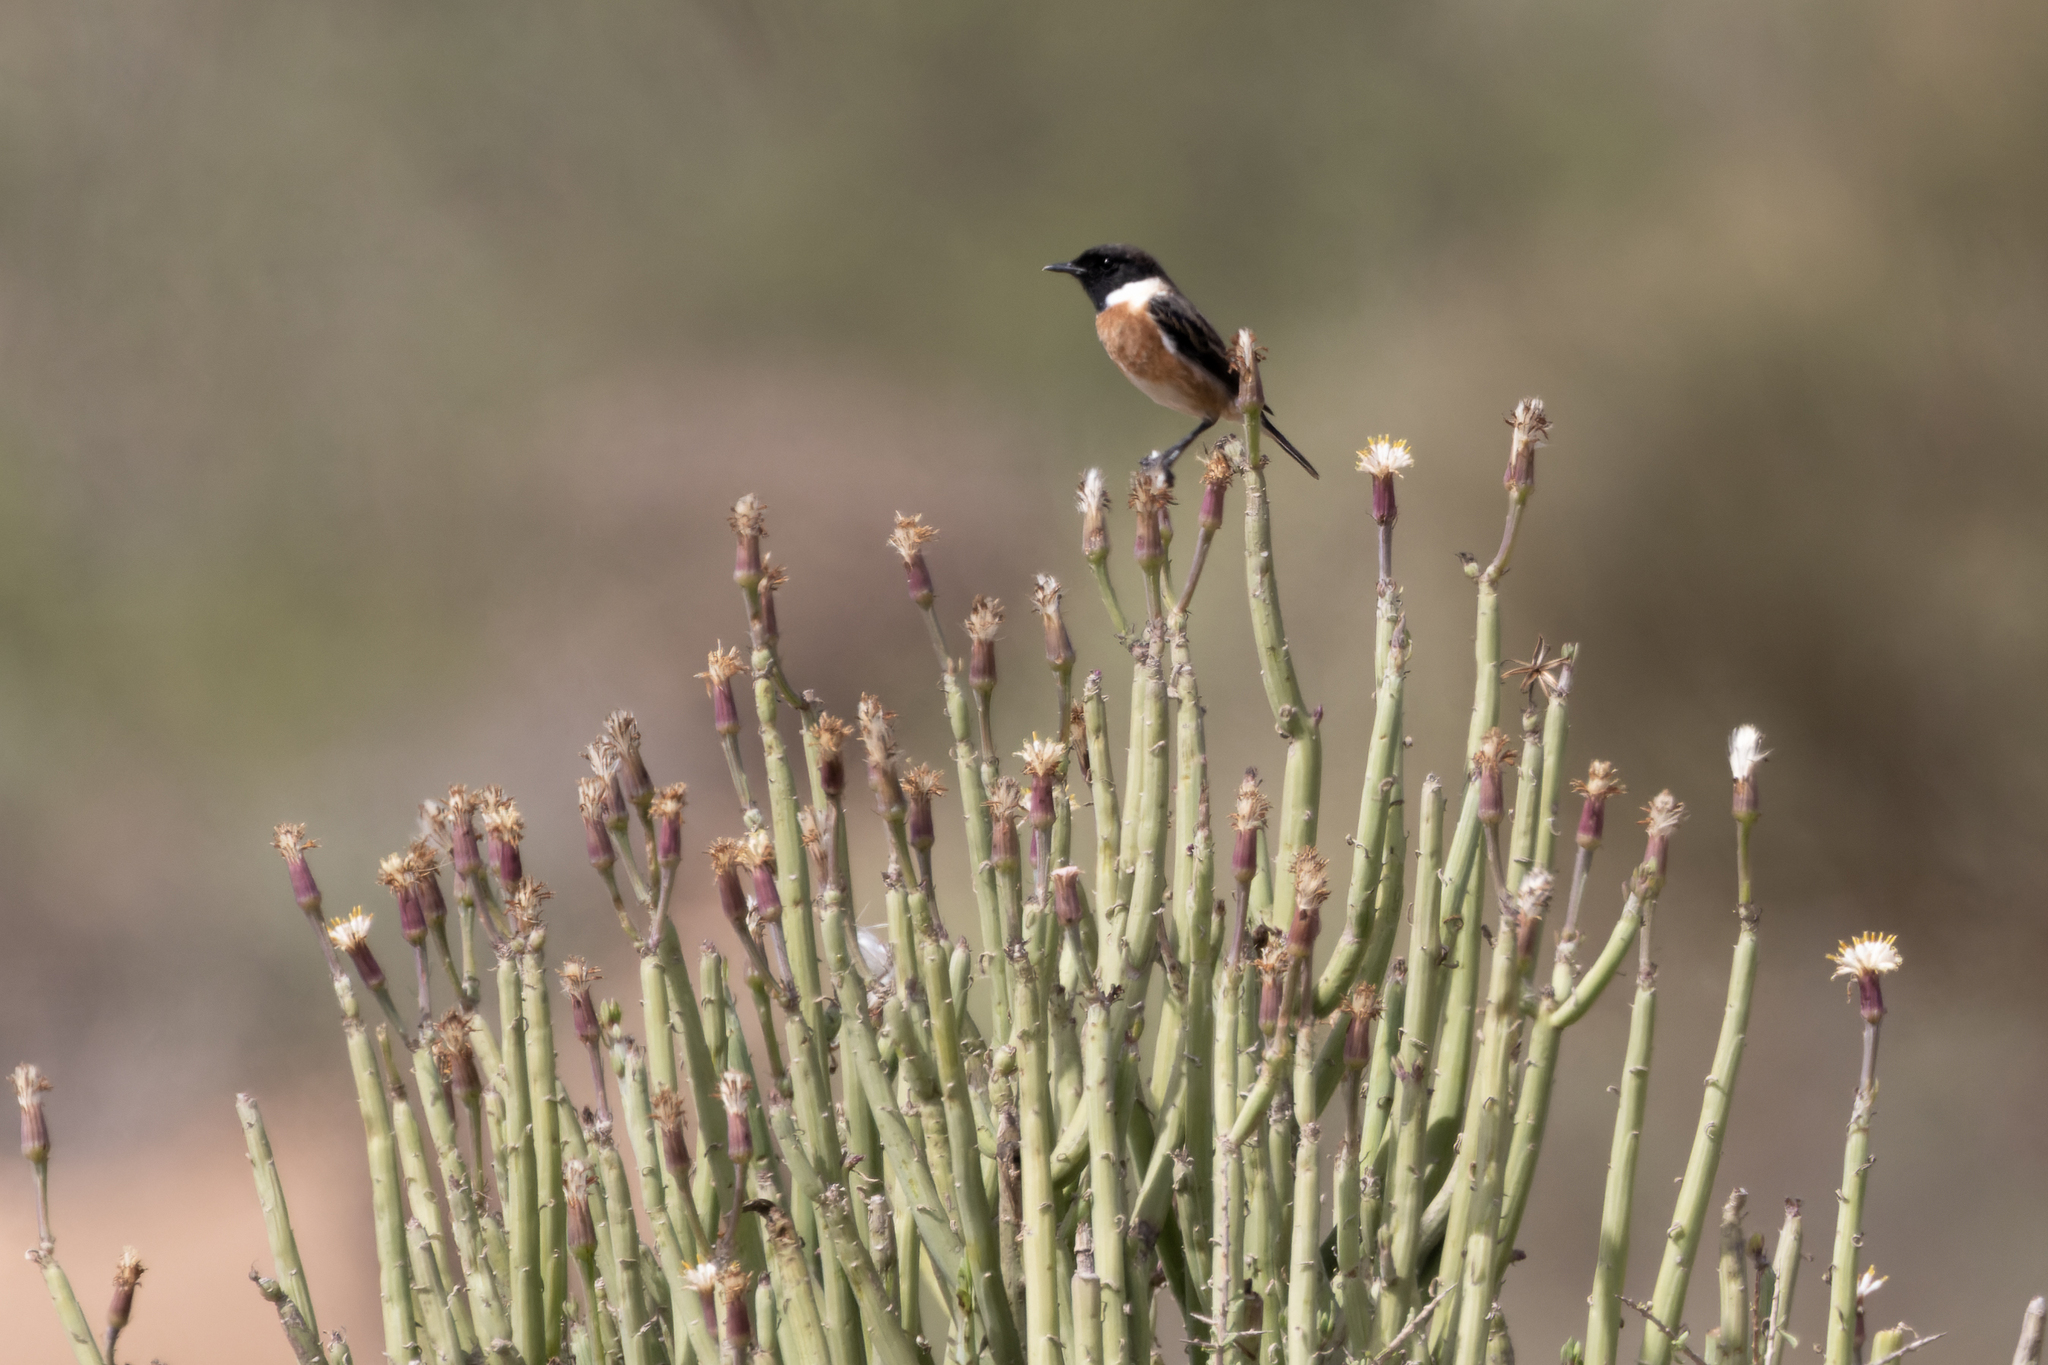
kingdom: Animalia
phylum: Chordata
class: Aves
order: Passeriformes
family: Muscicapidae
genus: Saxicola
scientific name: Saxicola rubicola
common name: European stonechat
